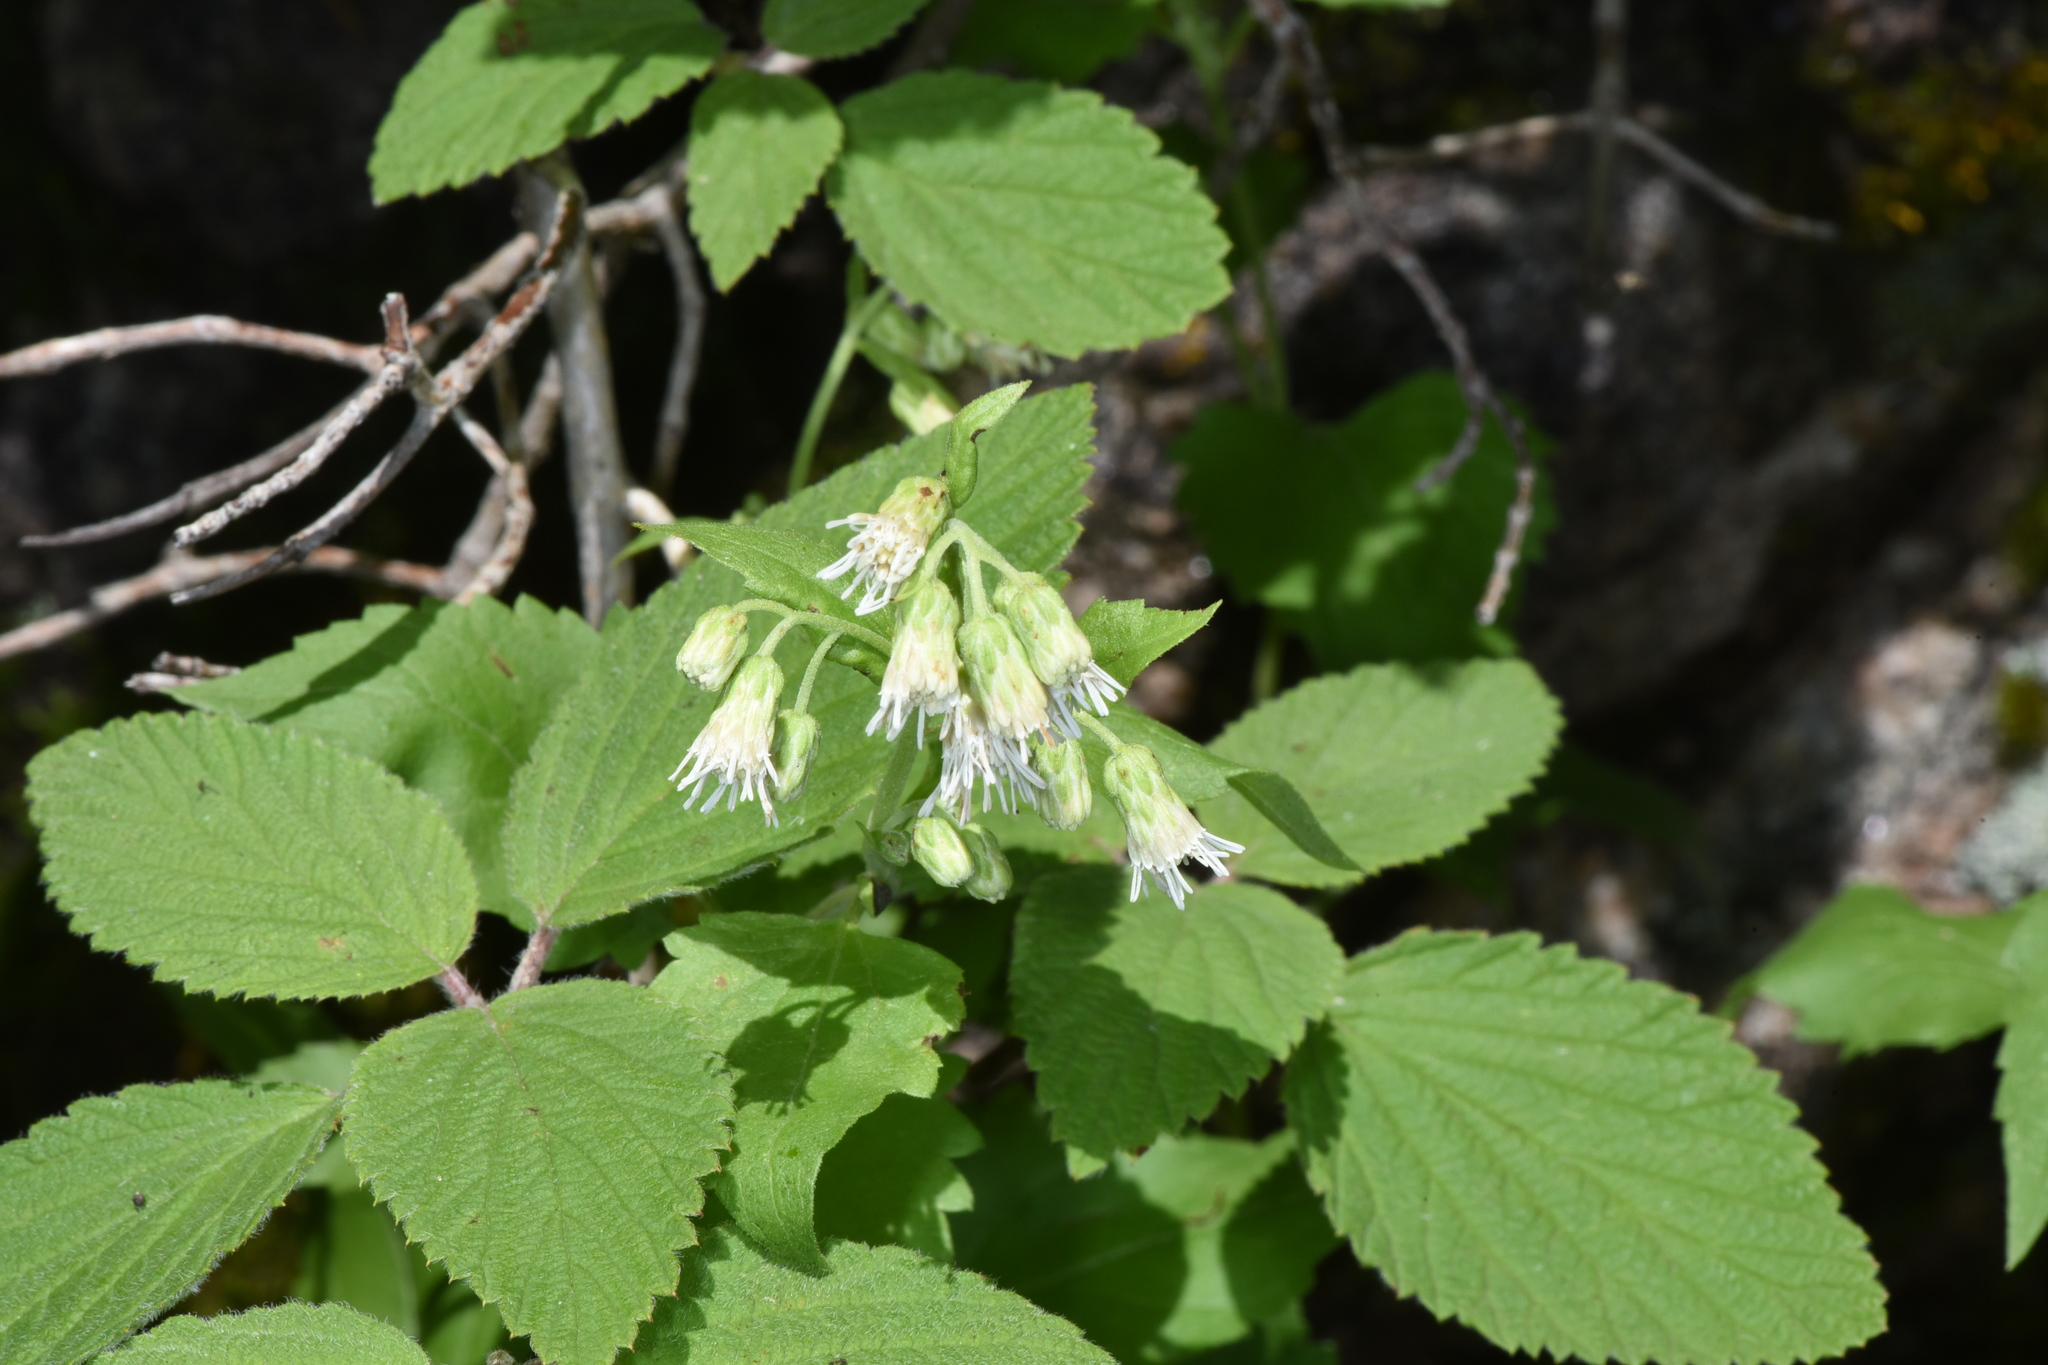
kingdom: Plantae
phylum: Tracheophyta
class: Magnoliopsida
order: Asterales
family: Asteraceae
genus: Brickelliastrum
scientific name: Brickelliastrum fendleri
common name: Fendler's-brickellbush
